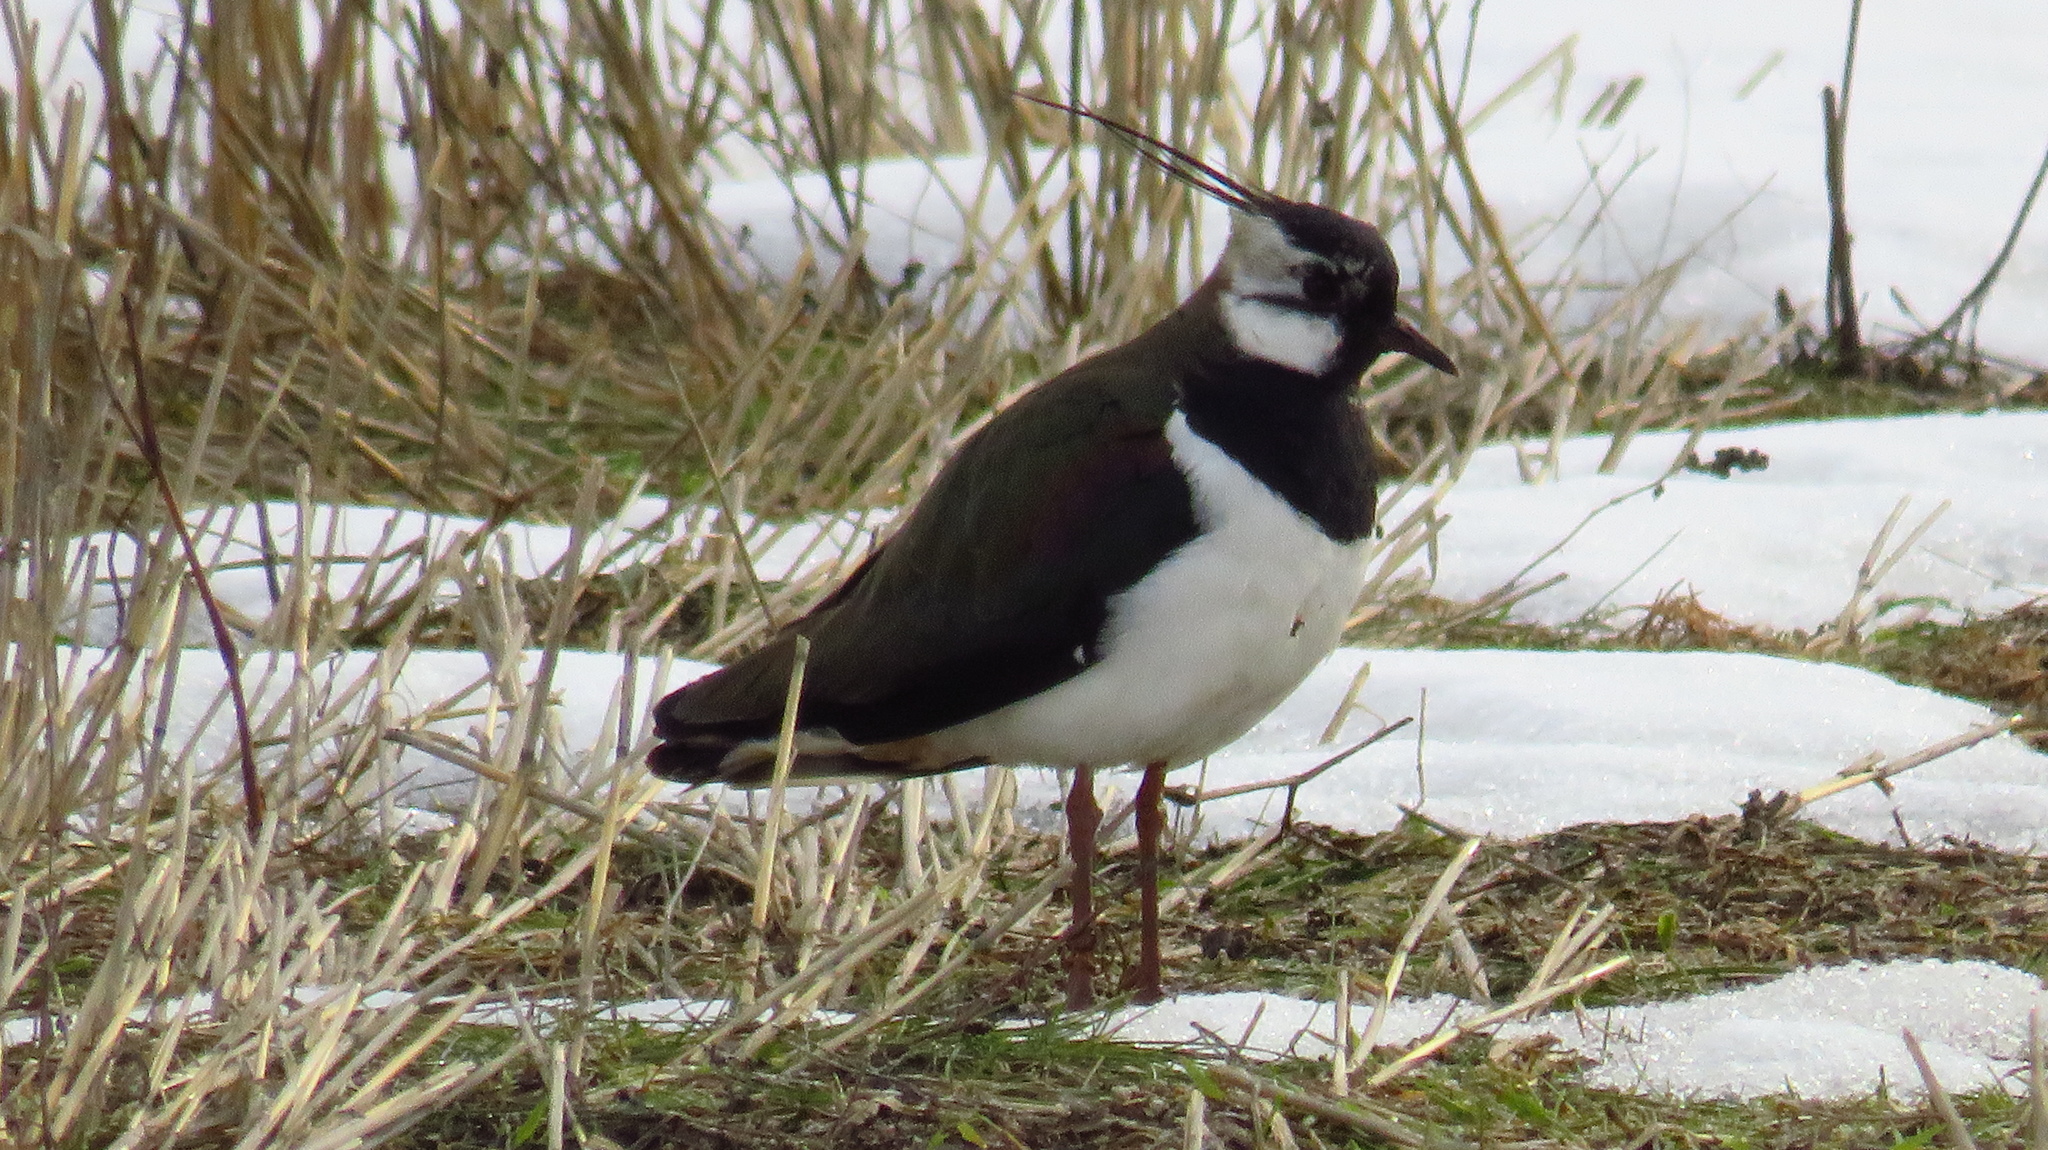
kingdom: Animalia
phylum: Chordata
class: Aves
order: Charadriiformes
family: Charadriidae
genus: Vanellus
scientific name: Vanellus vanellus
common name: Northern lapwing
